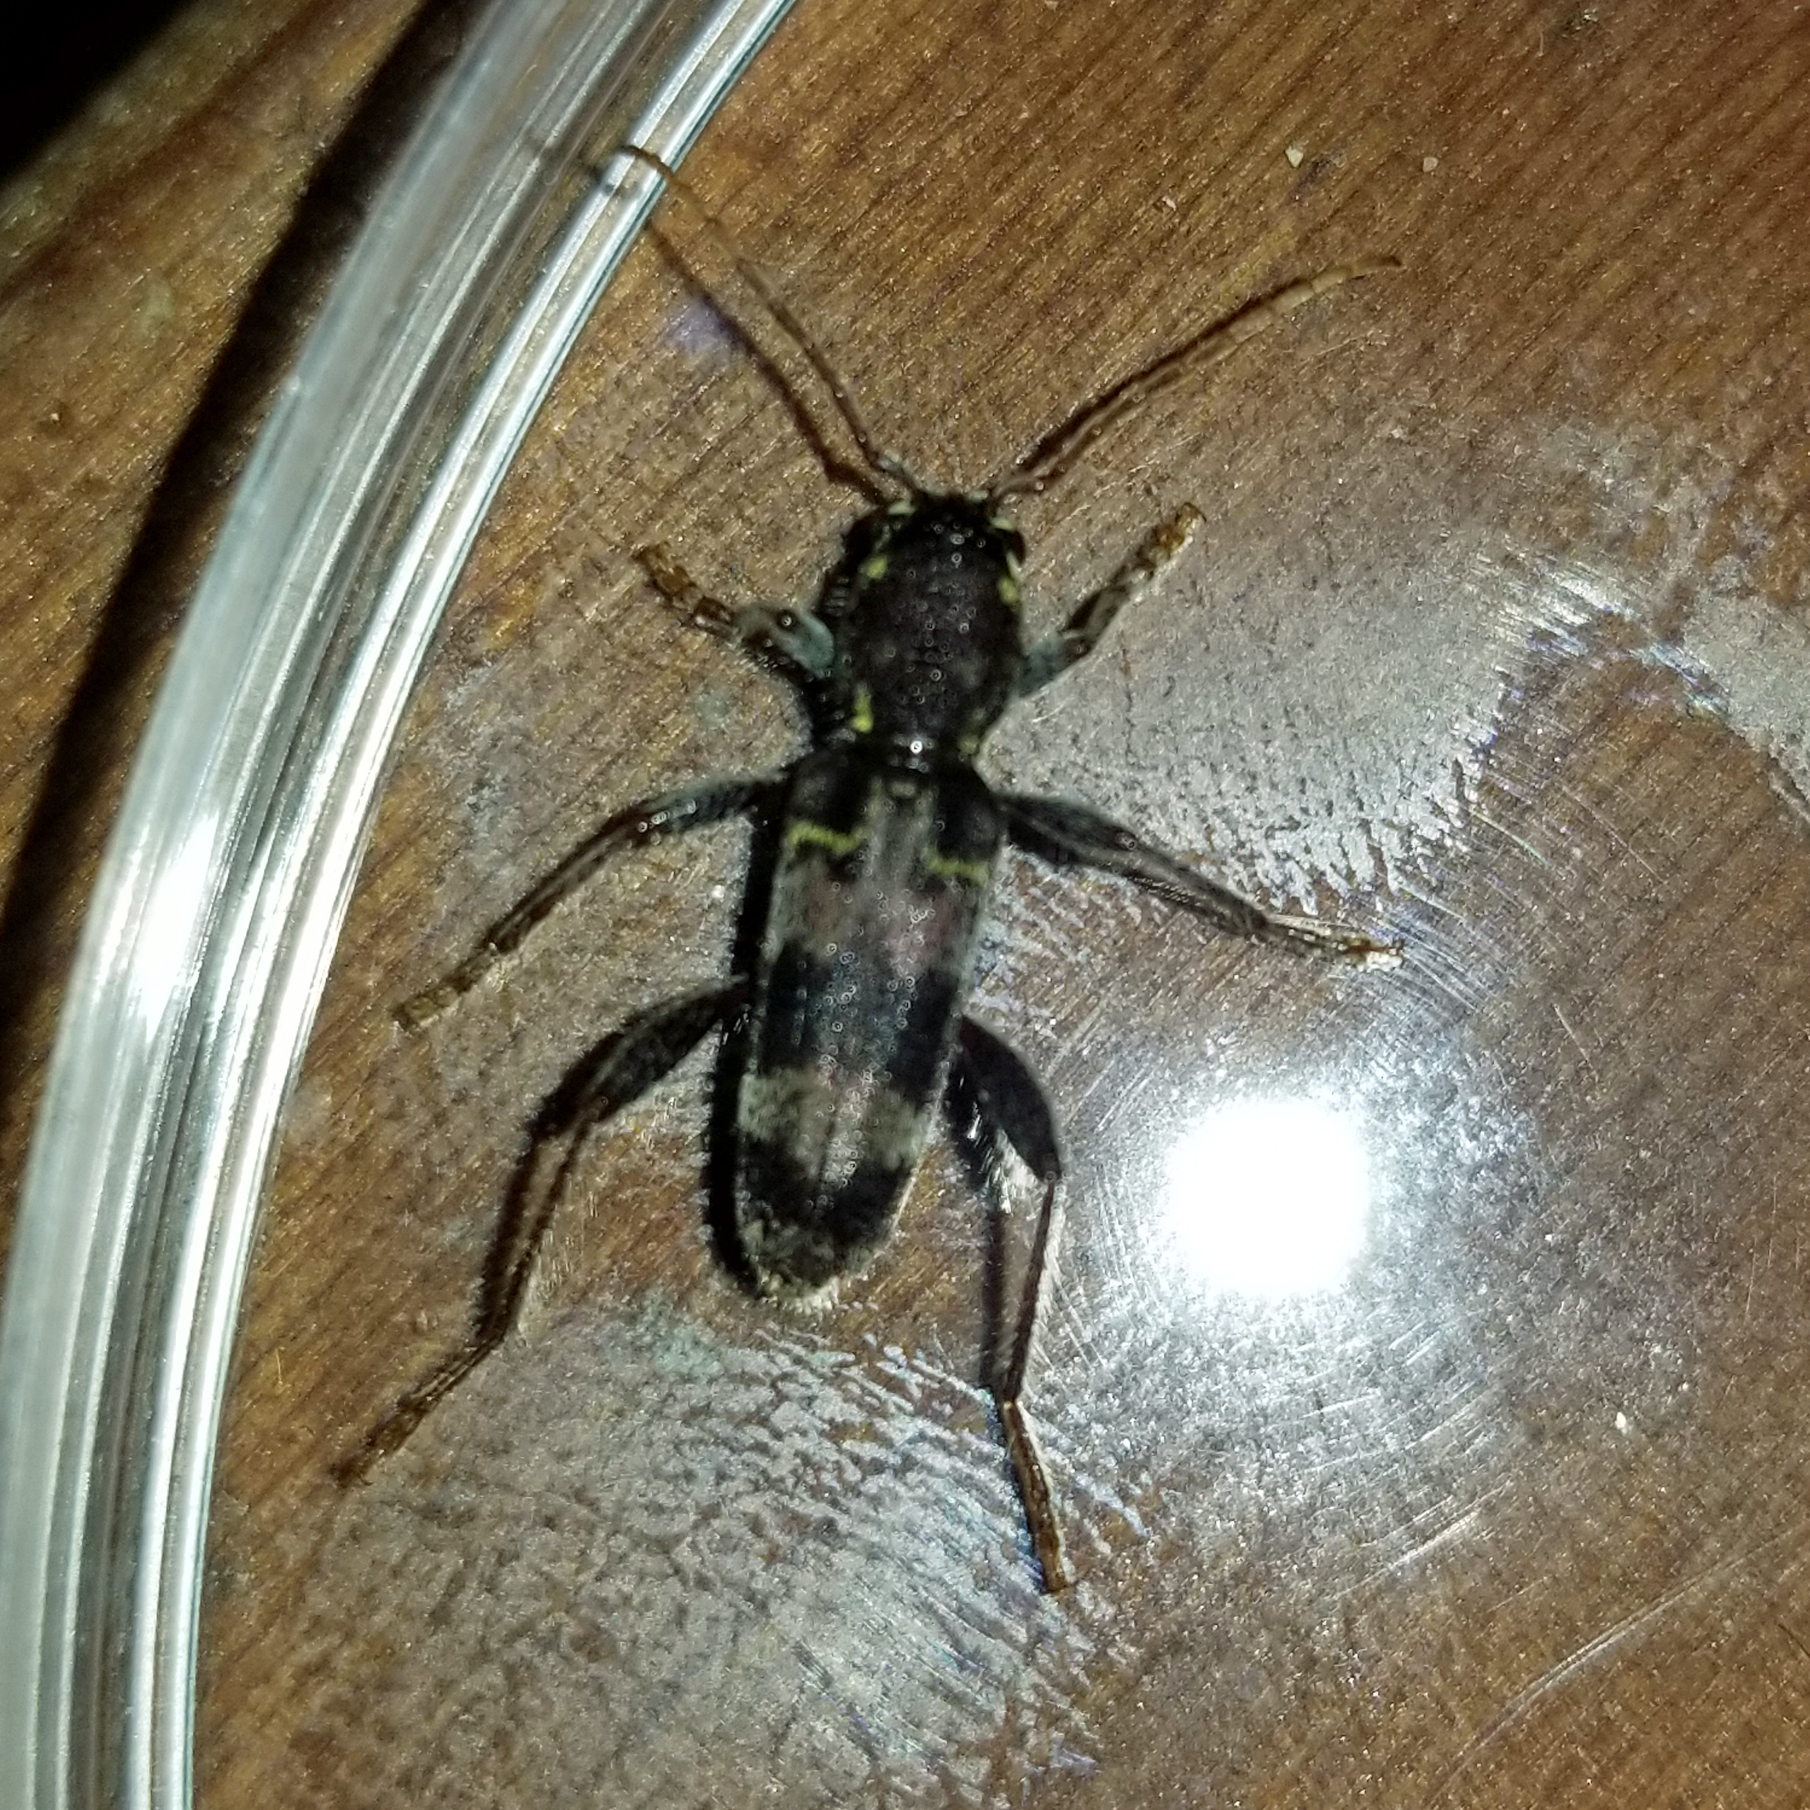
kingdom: Animalia
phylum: Arthropoda
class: Insecta
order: Coleoptera
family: Cerambycidae
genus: Xylotrechus
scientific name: Xylotrechus colonus
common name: Long-horned beetle
